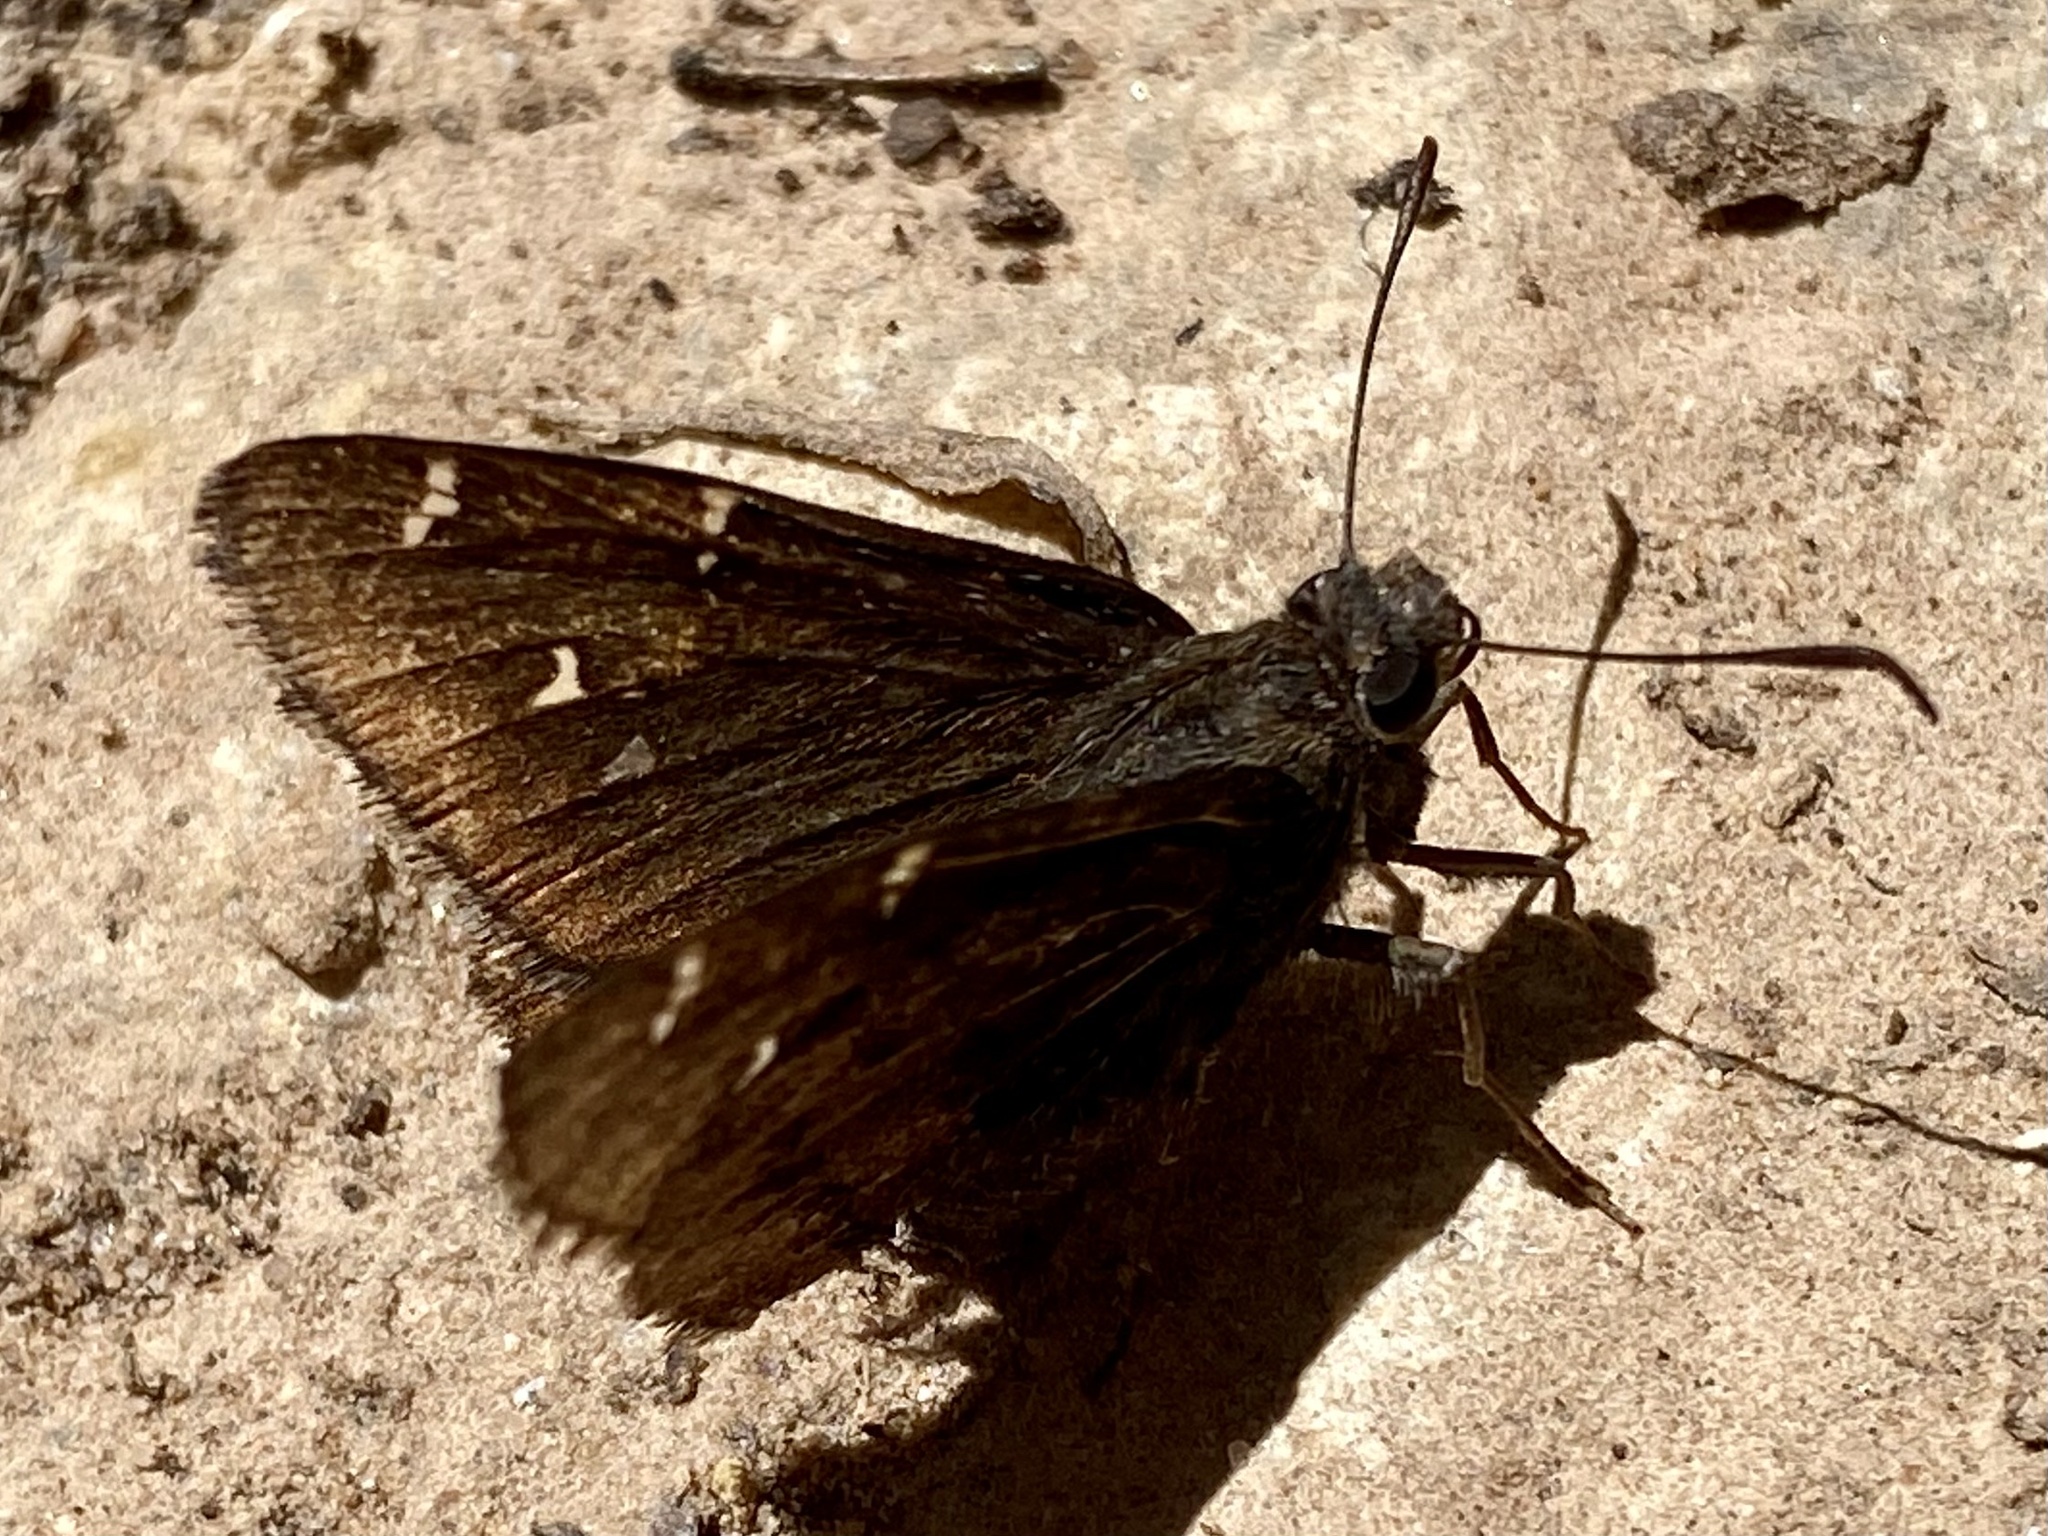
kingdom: Animalia
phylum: Arthropoda
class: Insecta
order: Lepidoptera
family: Hesperiidae
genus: Thorybes
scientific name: Thorybes pylades
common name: Northern cloudywing
